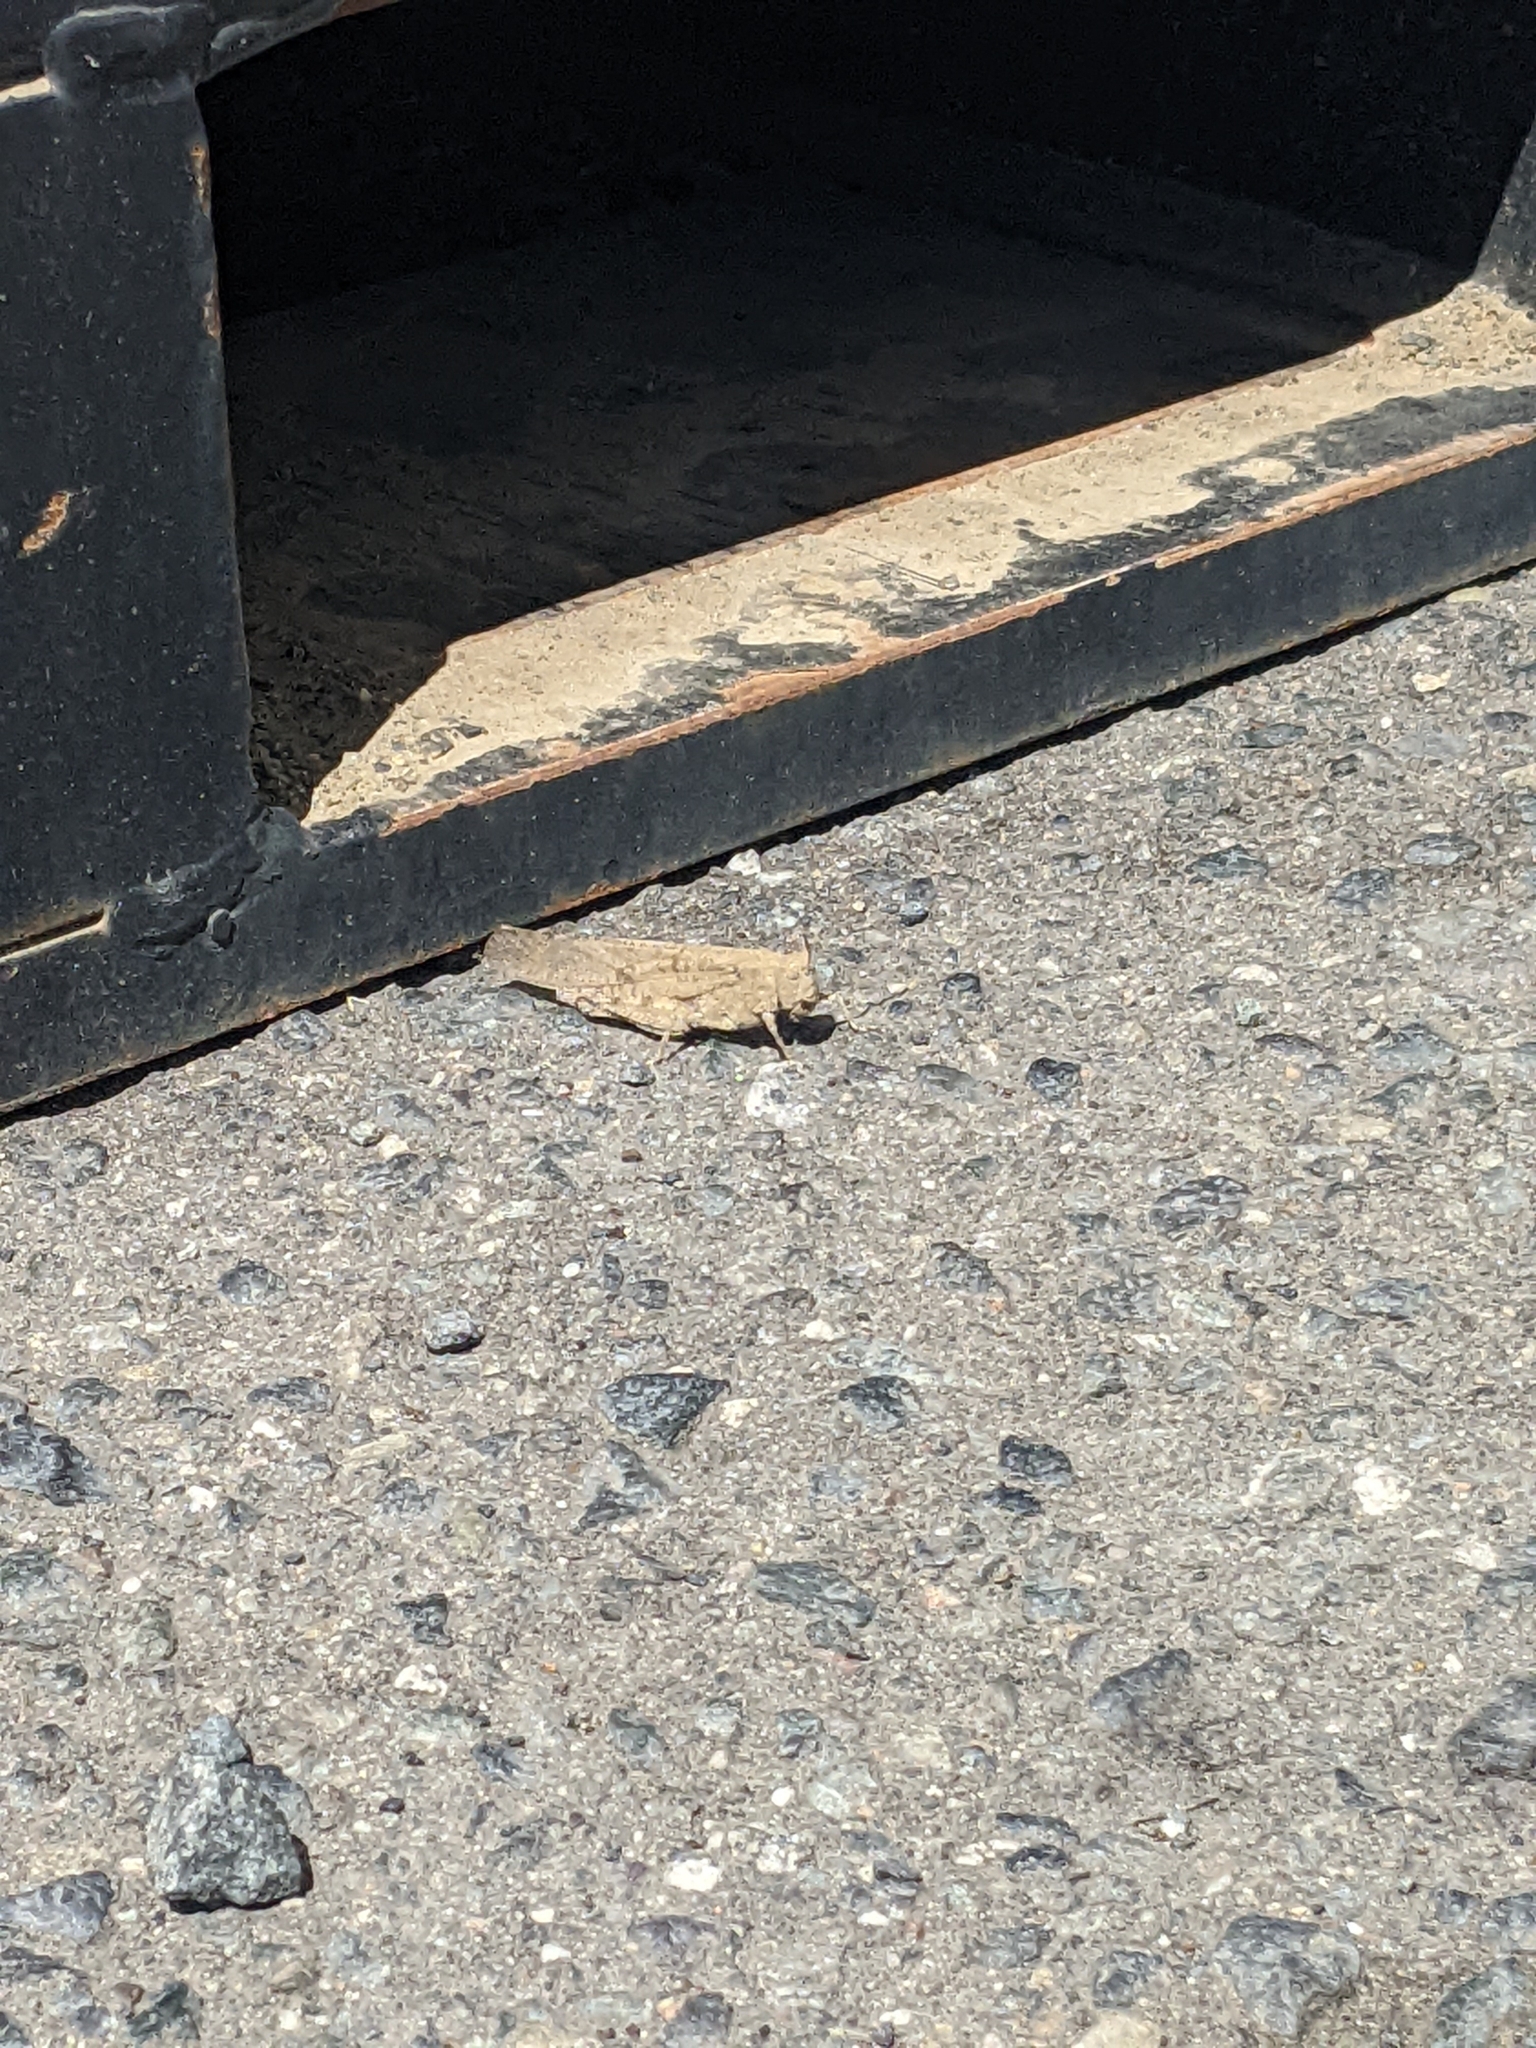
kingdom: Animalia
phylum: Arthropoda
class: Insecta
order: Orthoptera
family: Acrididae
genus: Dissosteira
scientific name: Dissosteira carolina
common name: Carolina grasshopper
